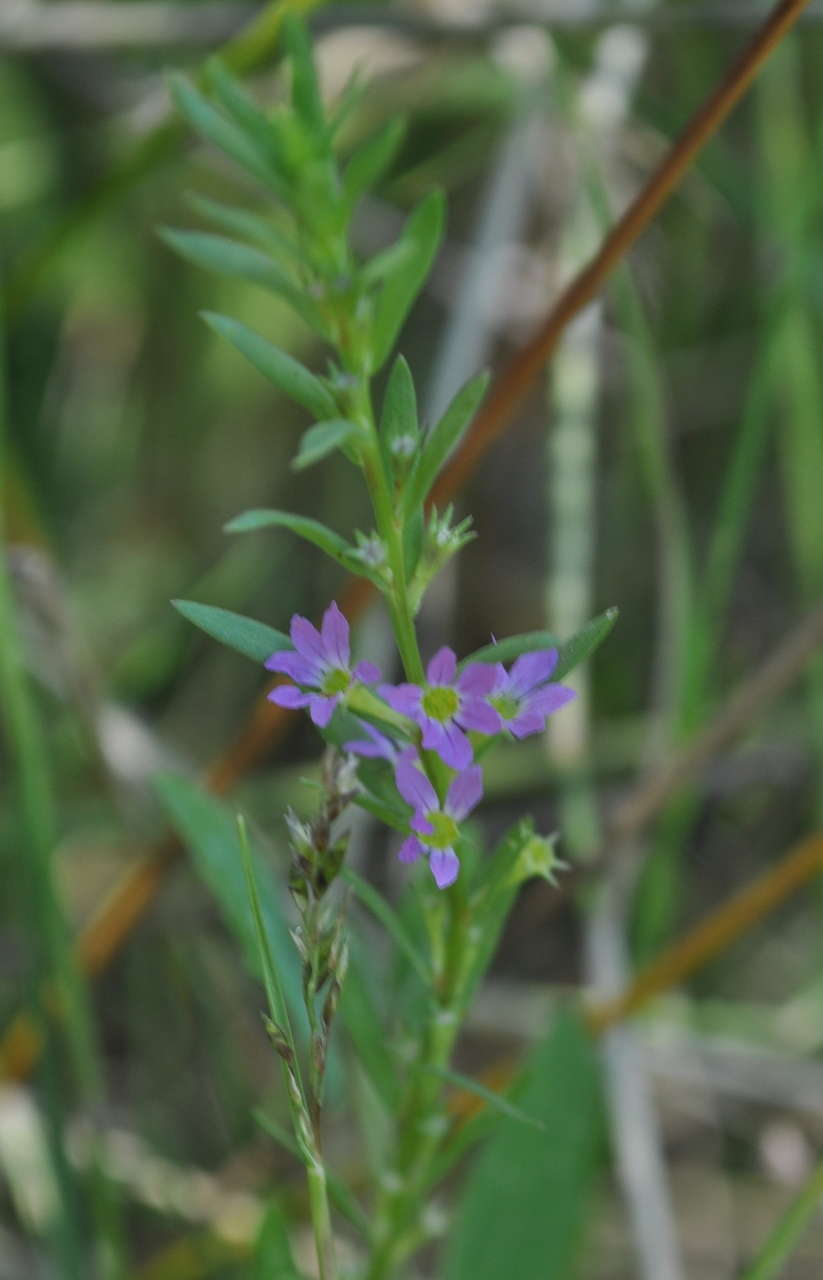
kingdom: Plantae
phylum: Tracheophyta
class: Magnoliopsida
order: Myrtales
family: Lythraceae
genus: Lythrum
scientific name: Lythrum hyssopifolia
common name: Grass-poly
